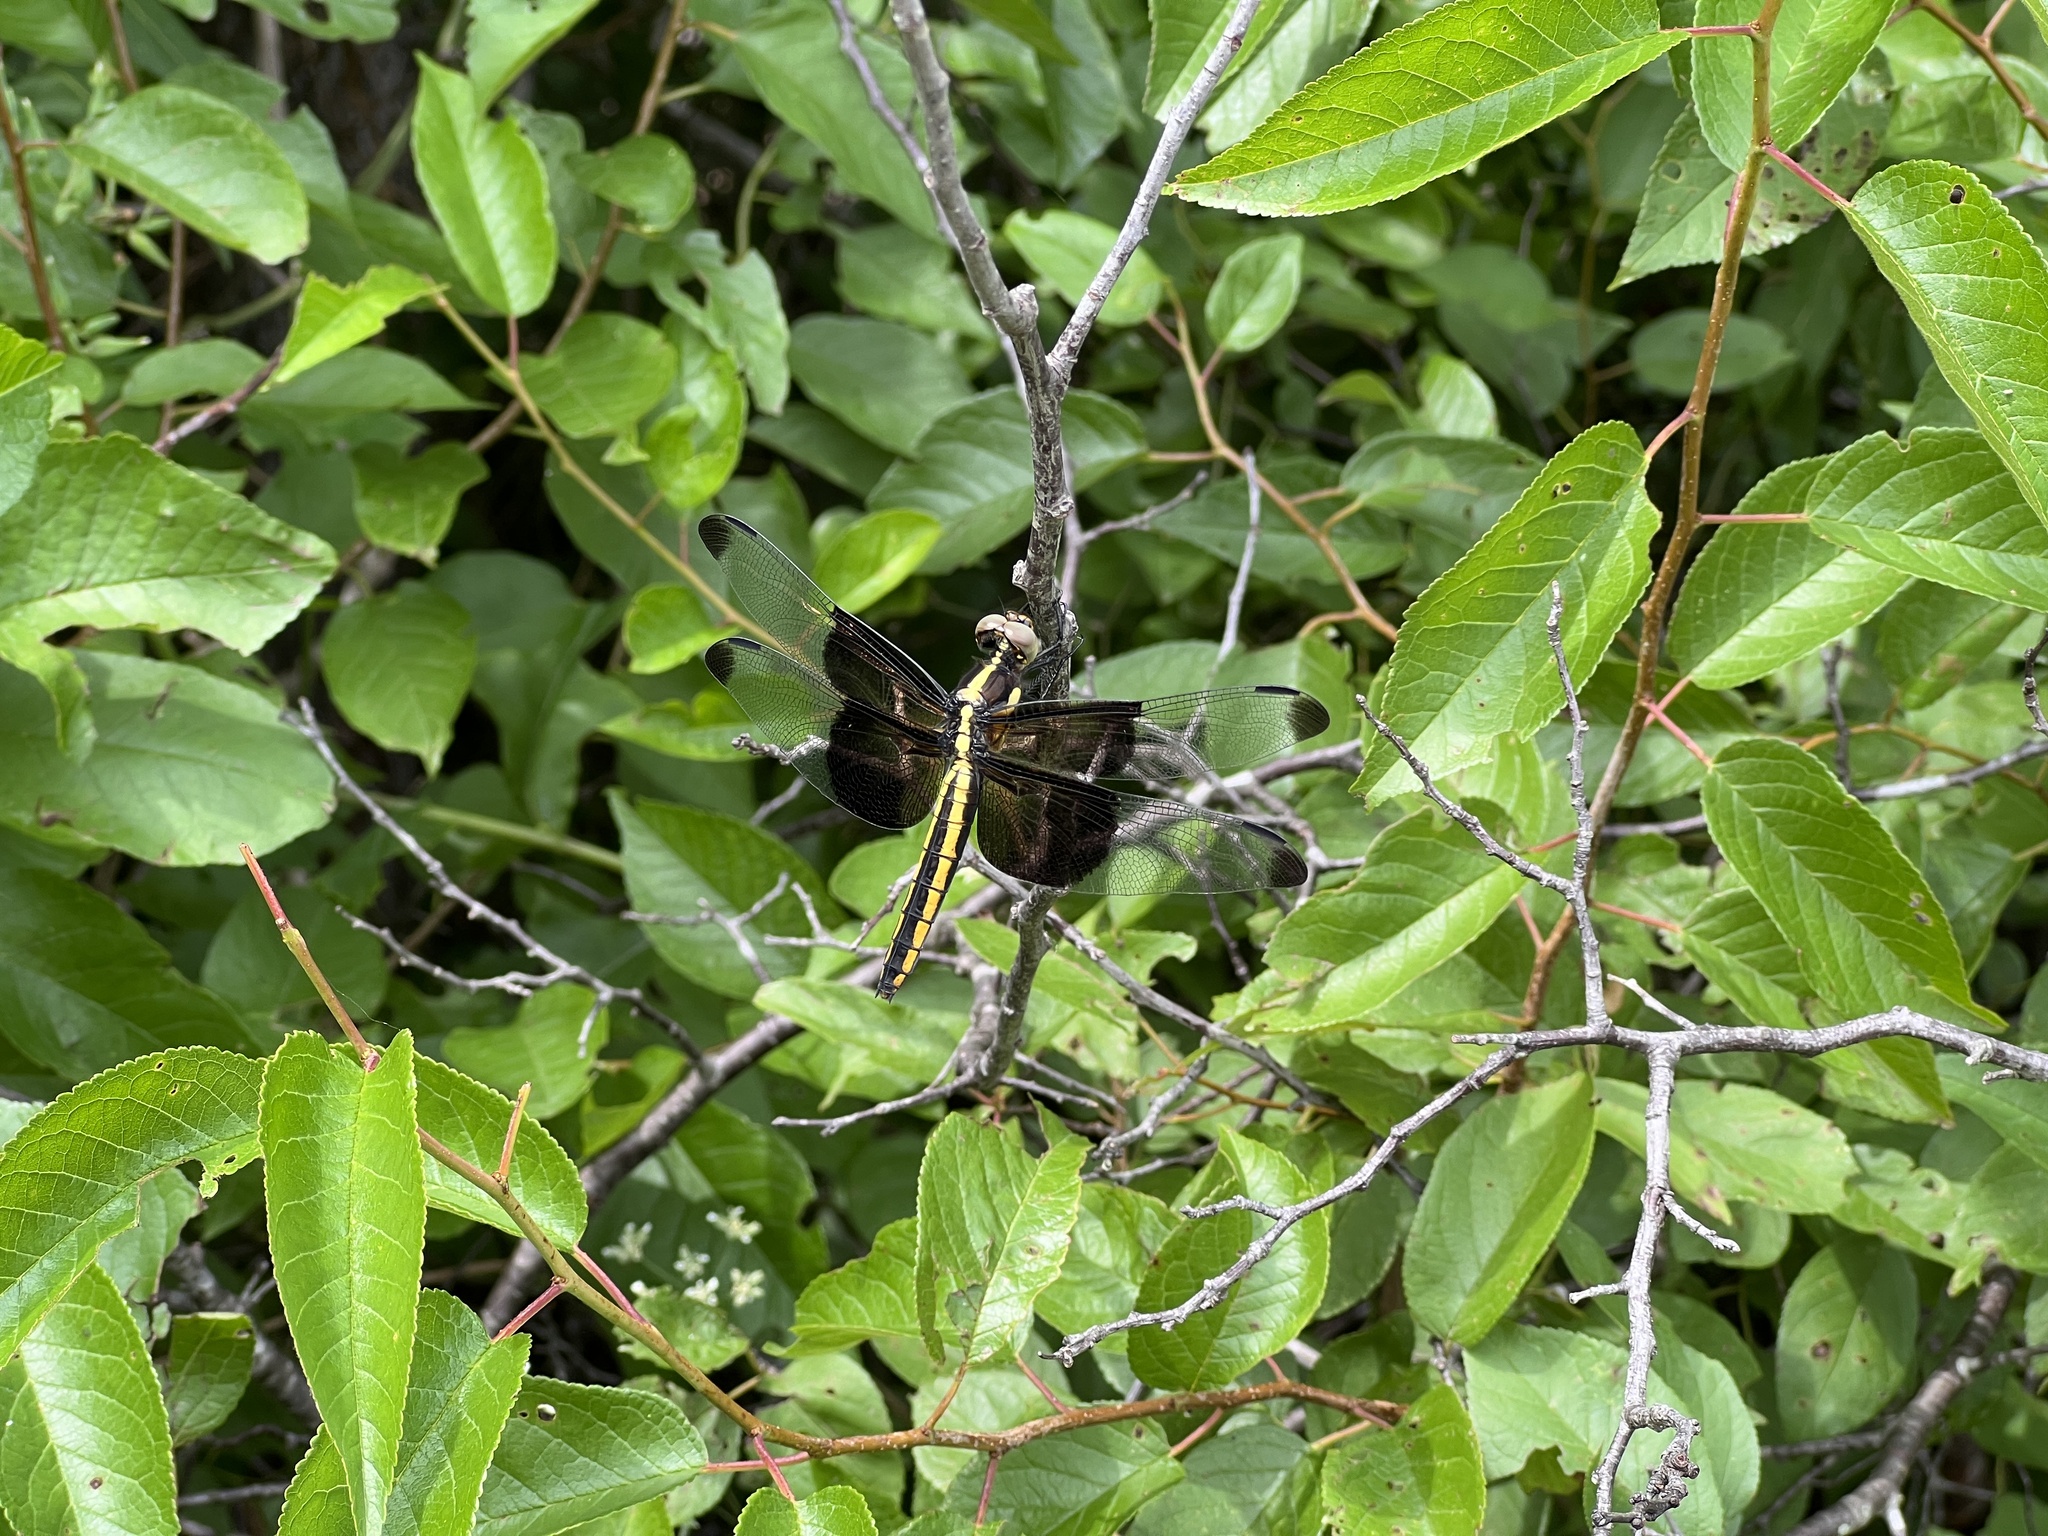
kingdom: Animalia
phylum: Arthropoda
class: Insecta
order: Odonata
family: Libellulidae
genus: Libellula
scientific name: Libellula luctuosa
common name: Widow skimmer
